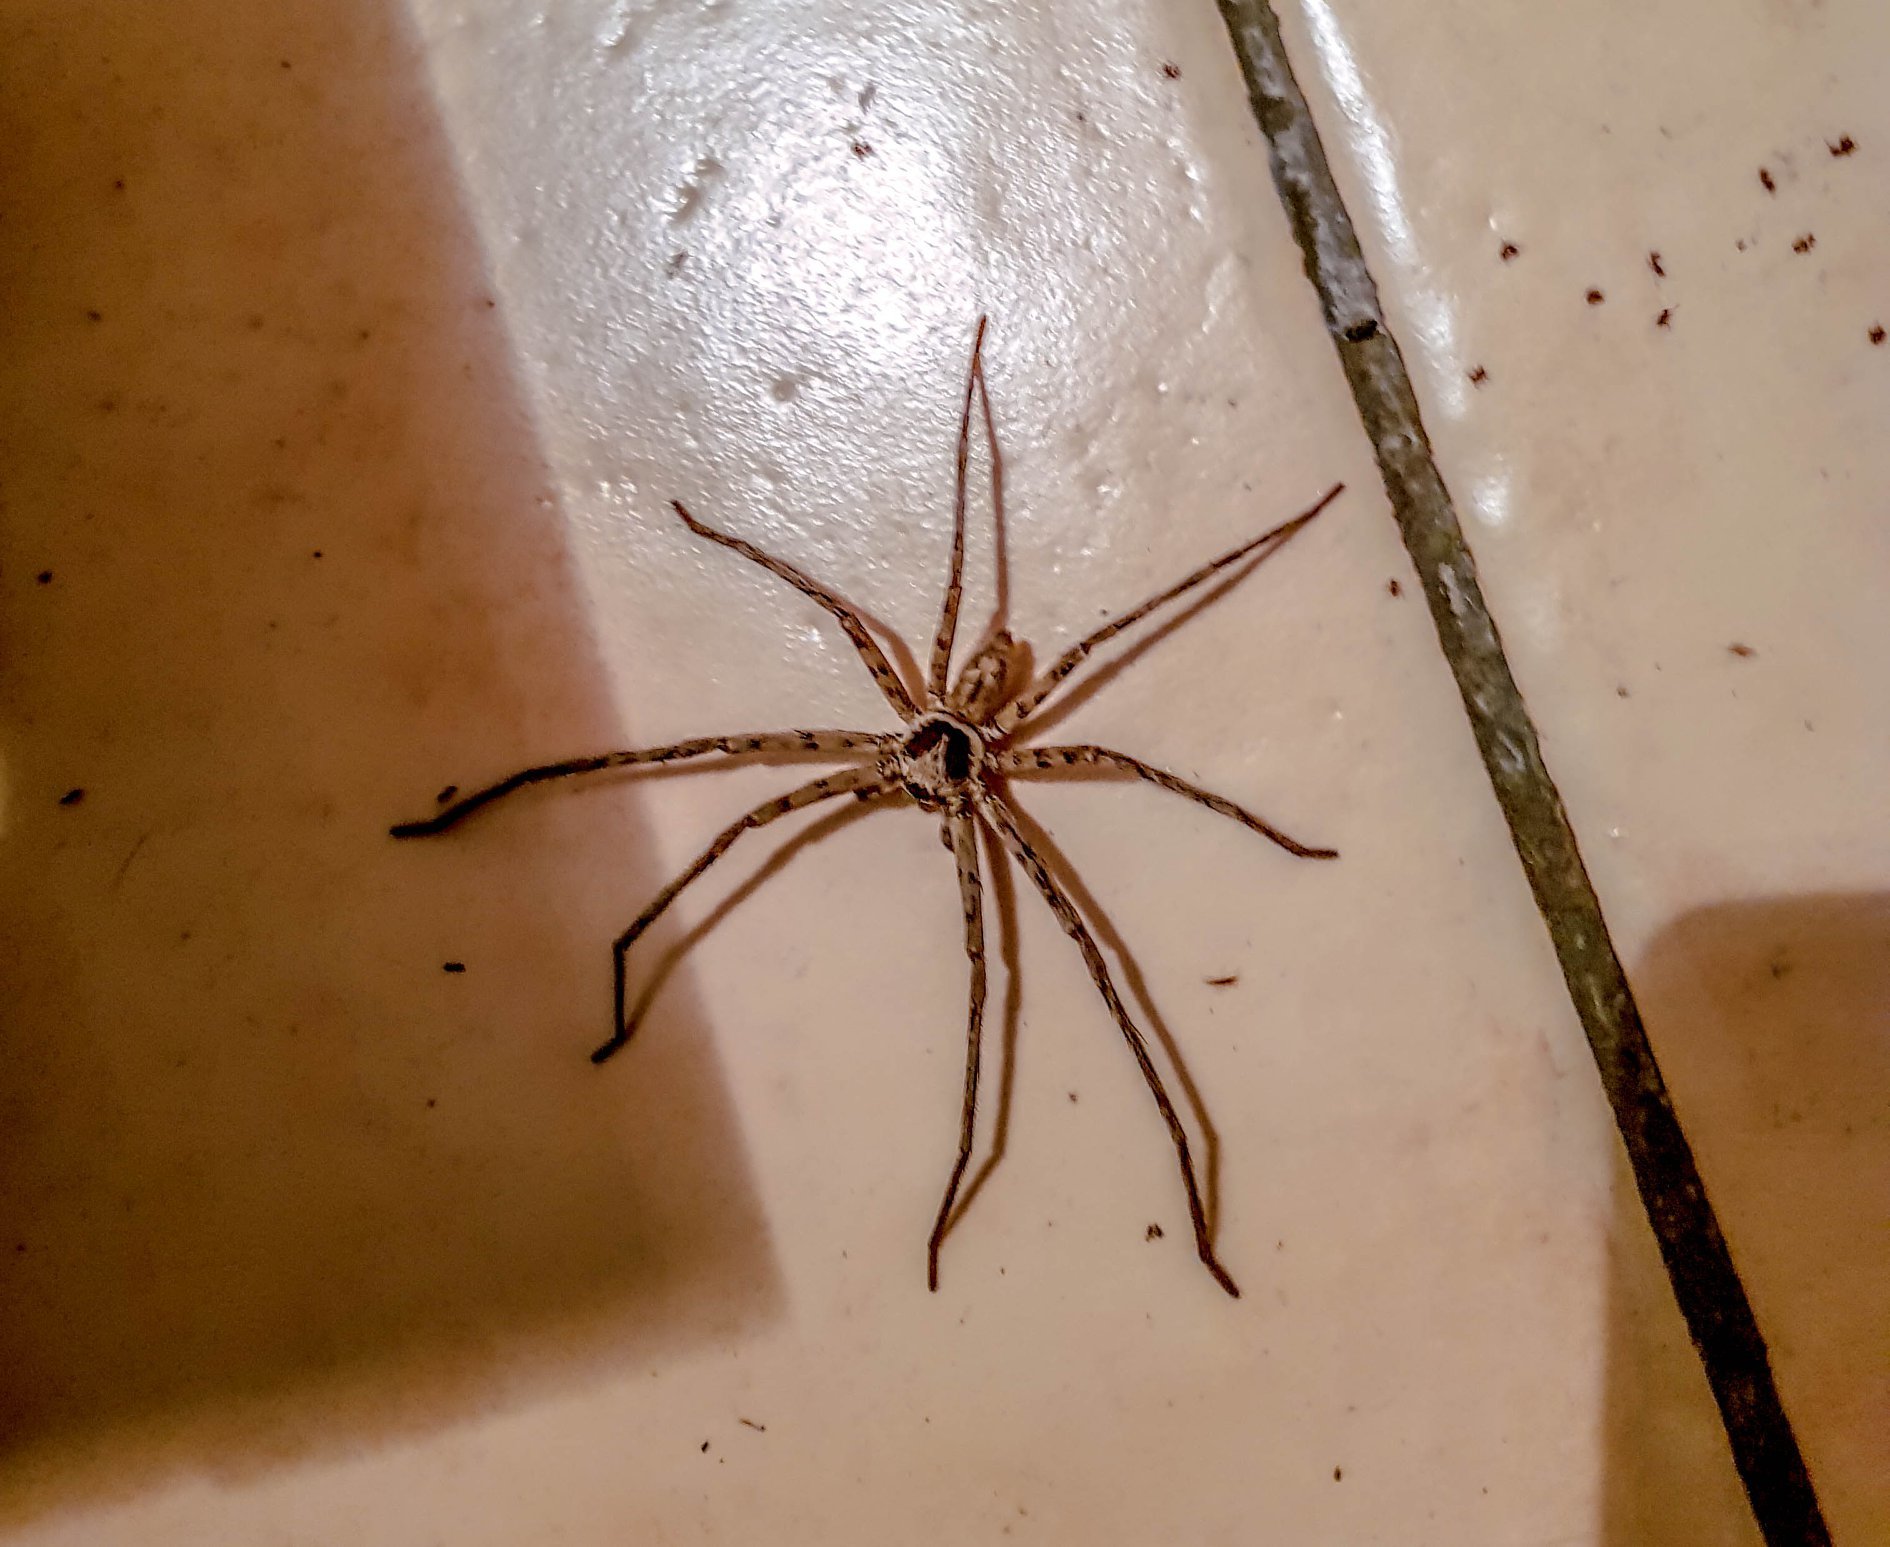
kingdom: Animalia
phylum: Arthropoda
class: Arachnida
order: Araneae
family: Sparassidae
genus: Heteropoda
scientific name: Heteropoda venatoria
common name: Huntsman spider
